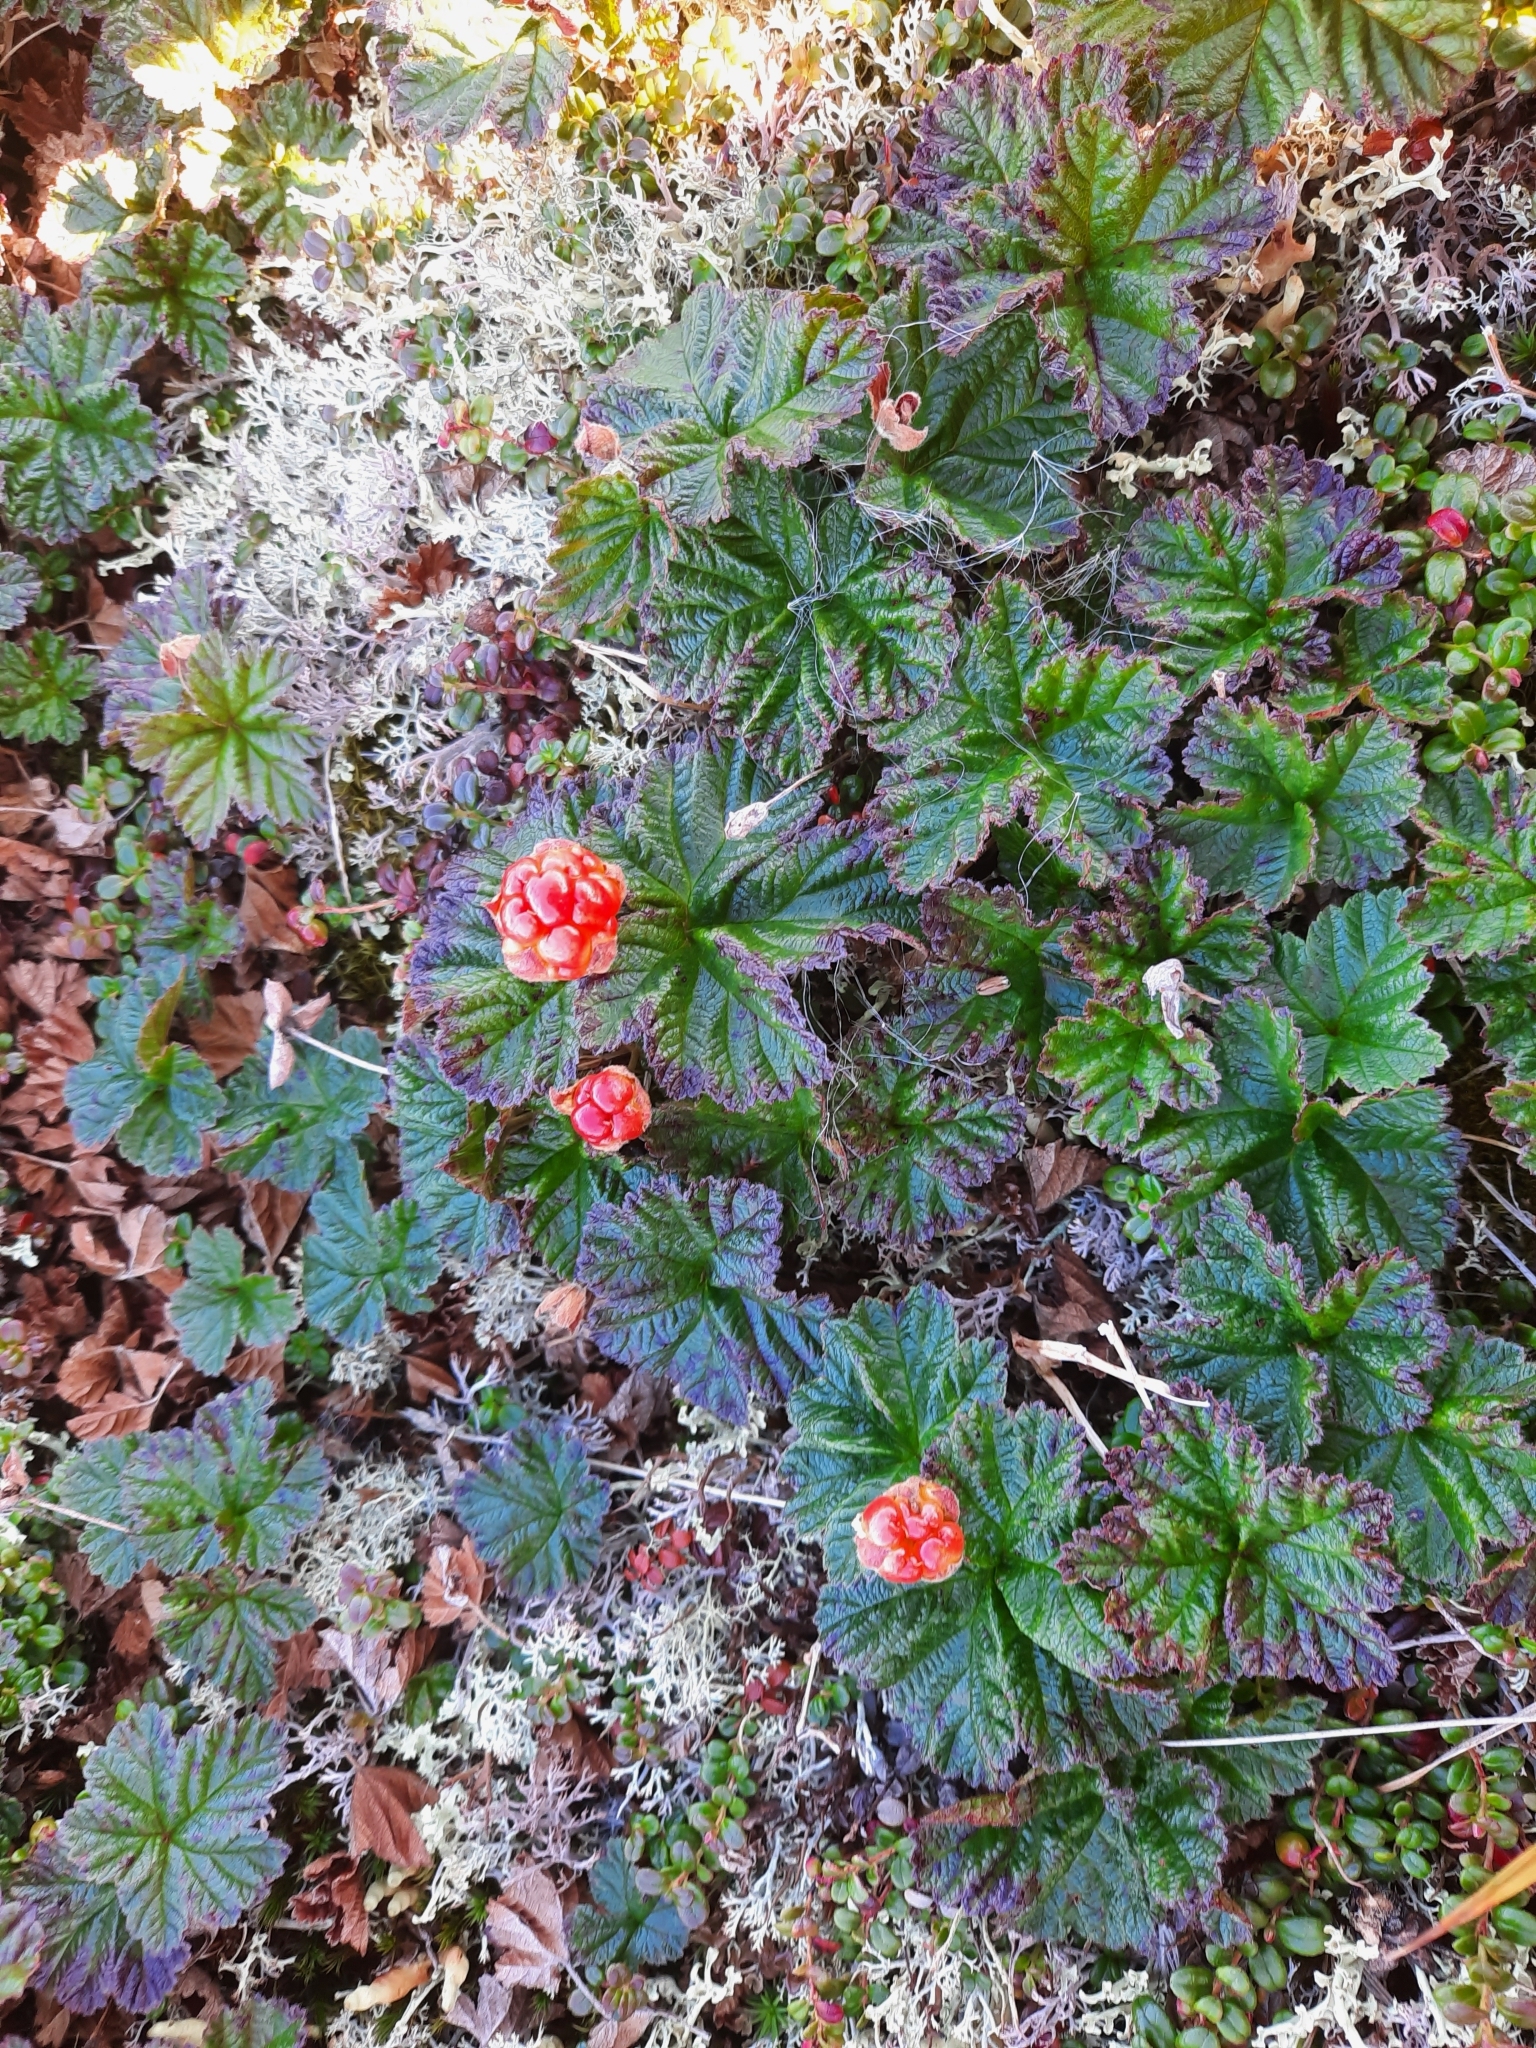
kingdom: Plantae
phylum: Tracheophyta
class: Magnoliopsida
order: Rosales
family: Rosaceae
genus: Rubus
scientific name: Rubus chamaemorus
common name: Cloudberry
